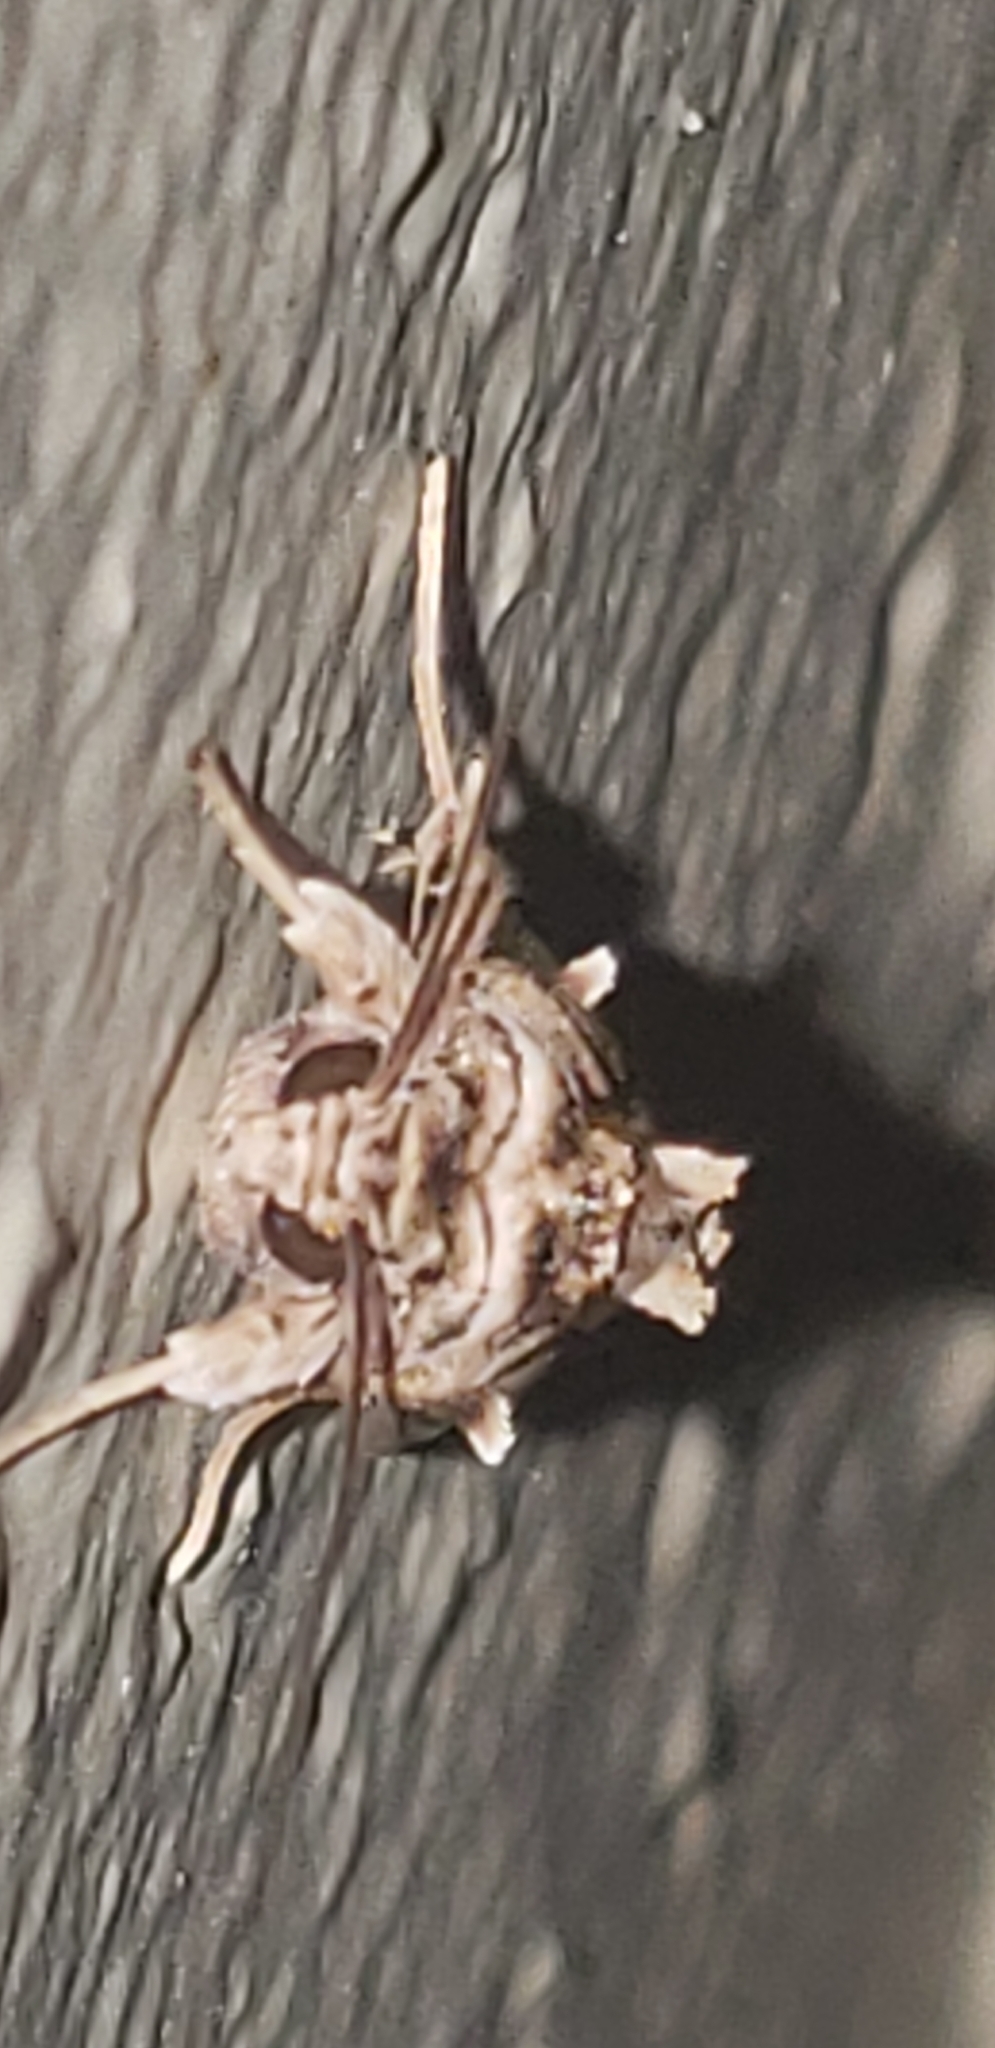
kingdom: Animalia
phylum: Arthropoda
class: Insecta
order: Lepidoptera
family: Noctuidae
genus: Spodoptera
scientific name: Spodoptera pulchella
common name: Caribbean armyworm moth
